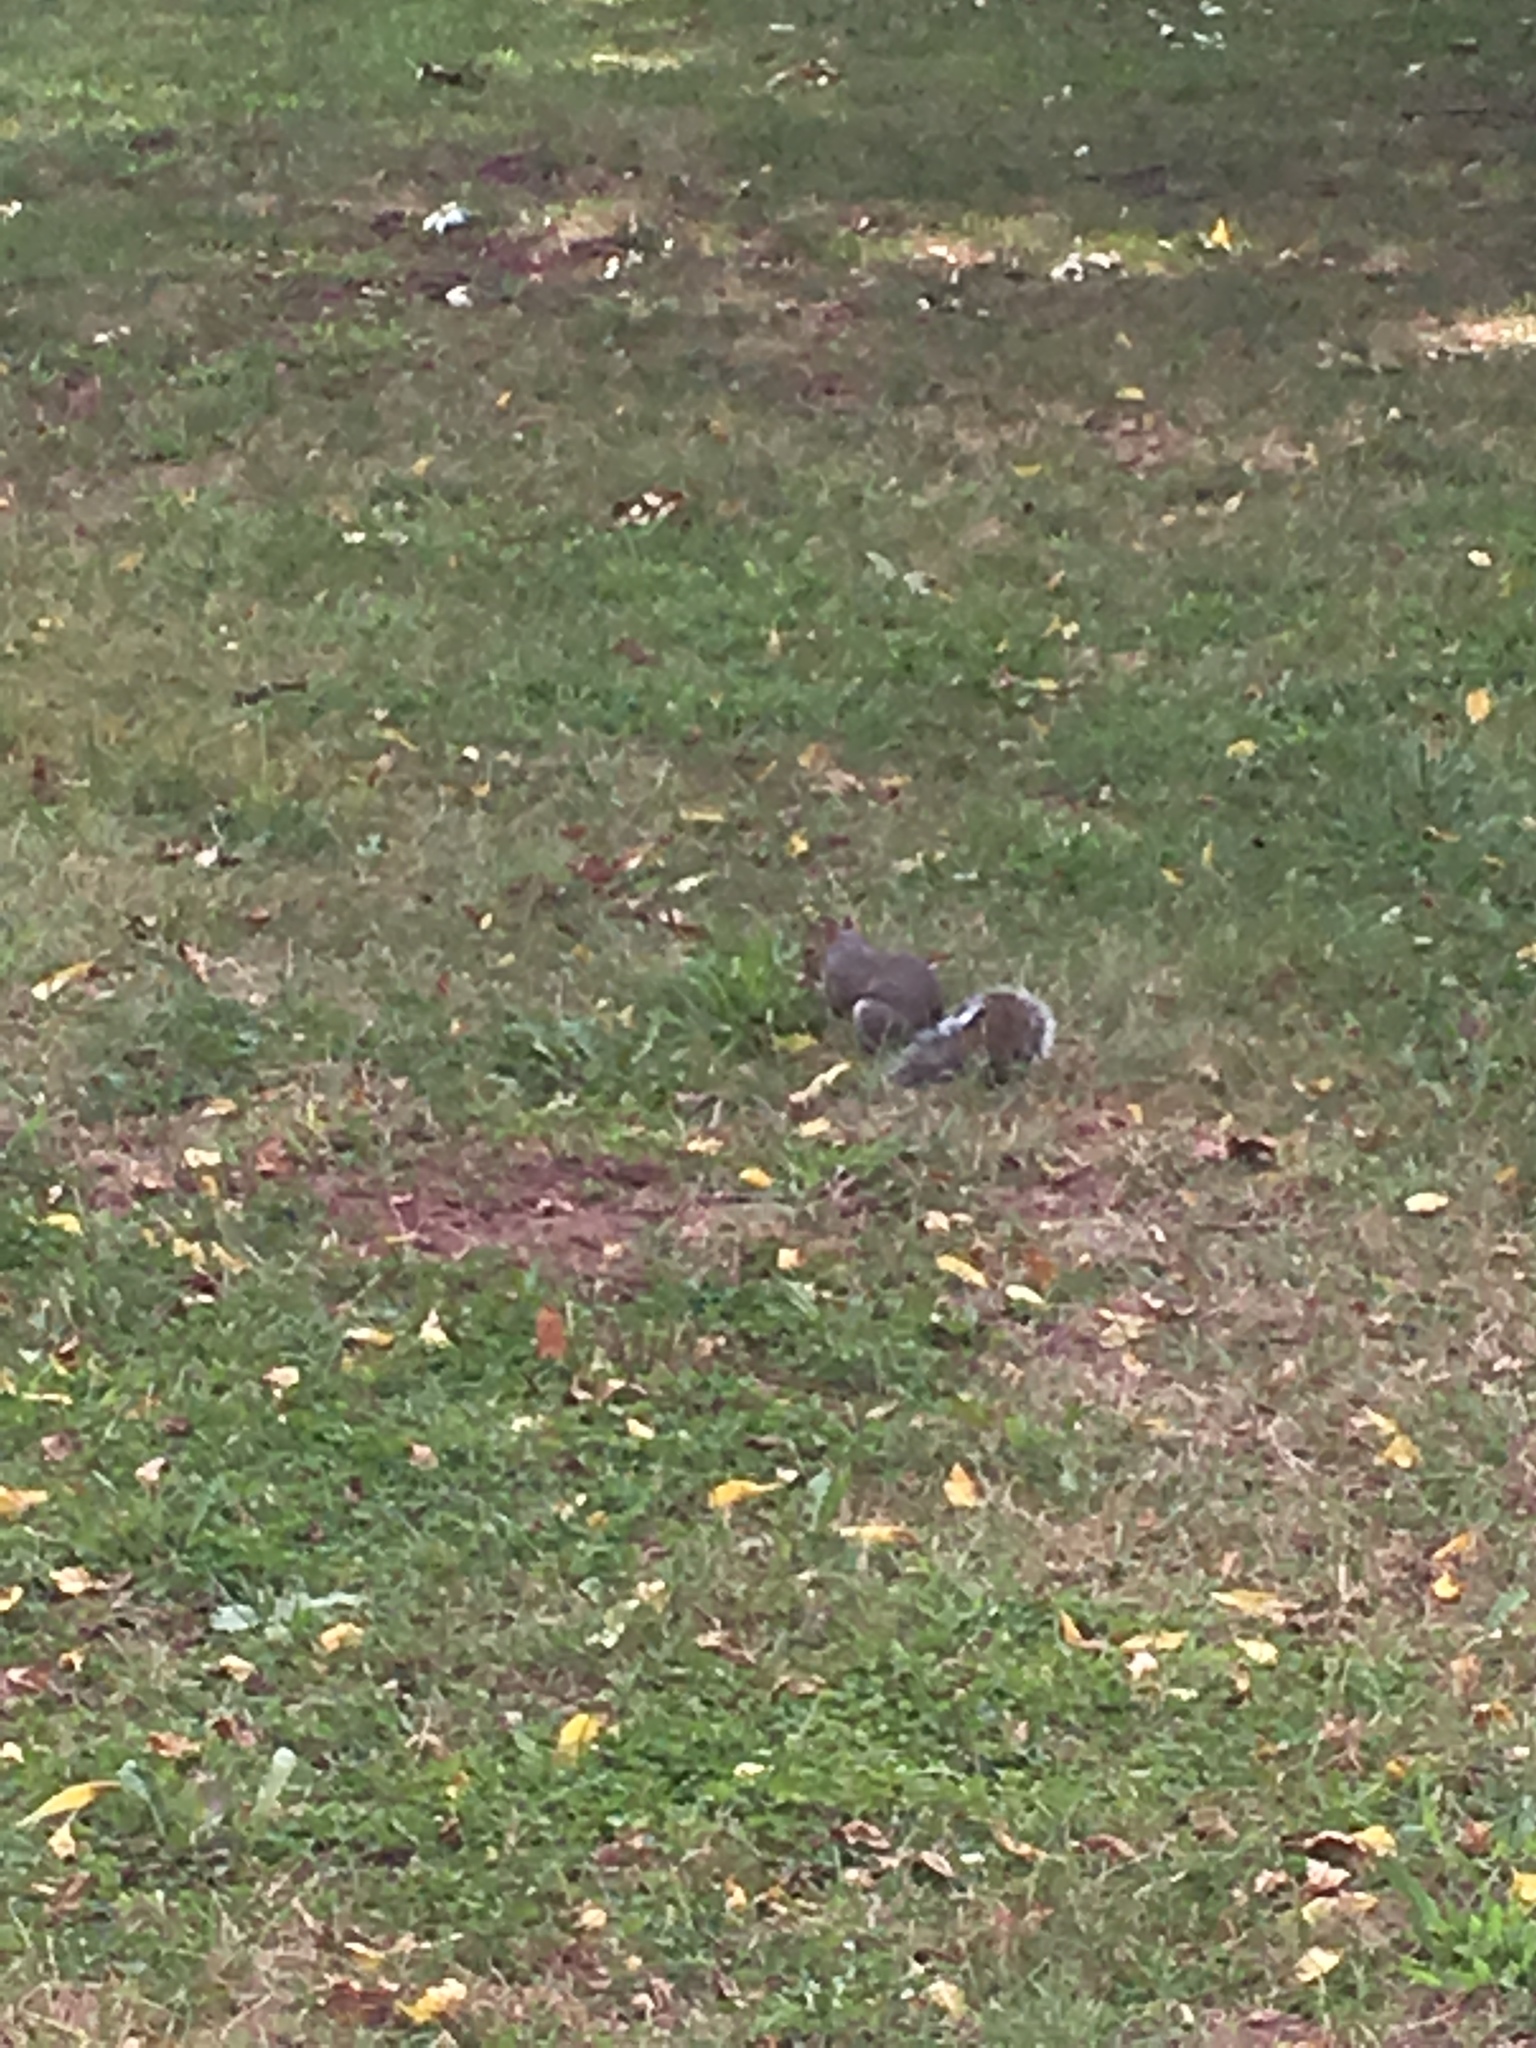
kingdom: Animalia
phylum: Chordata
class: Mammalia
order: Rodentia
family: Sciuridae
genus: Sciurus
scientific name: Sciurus carolinensis
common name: Eastern gray squirrel
